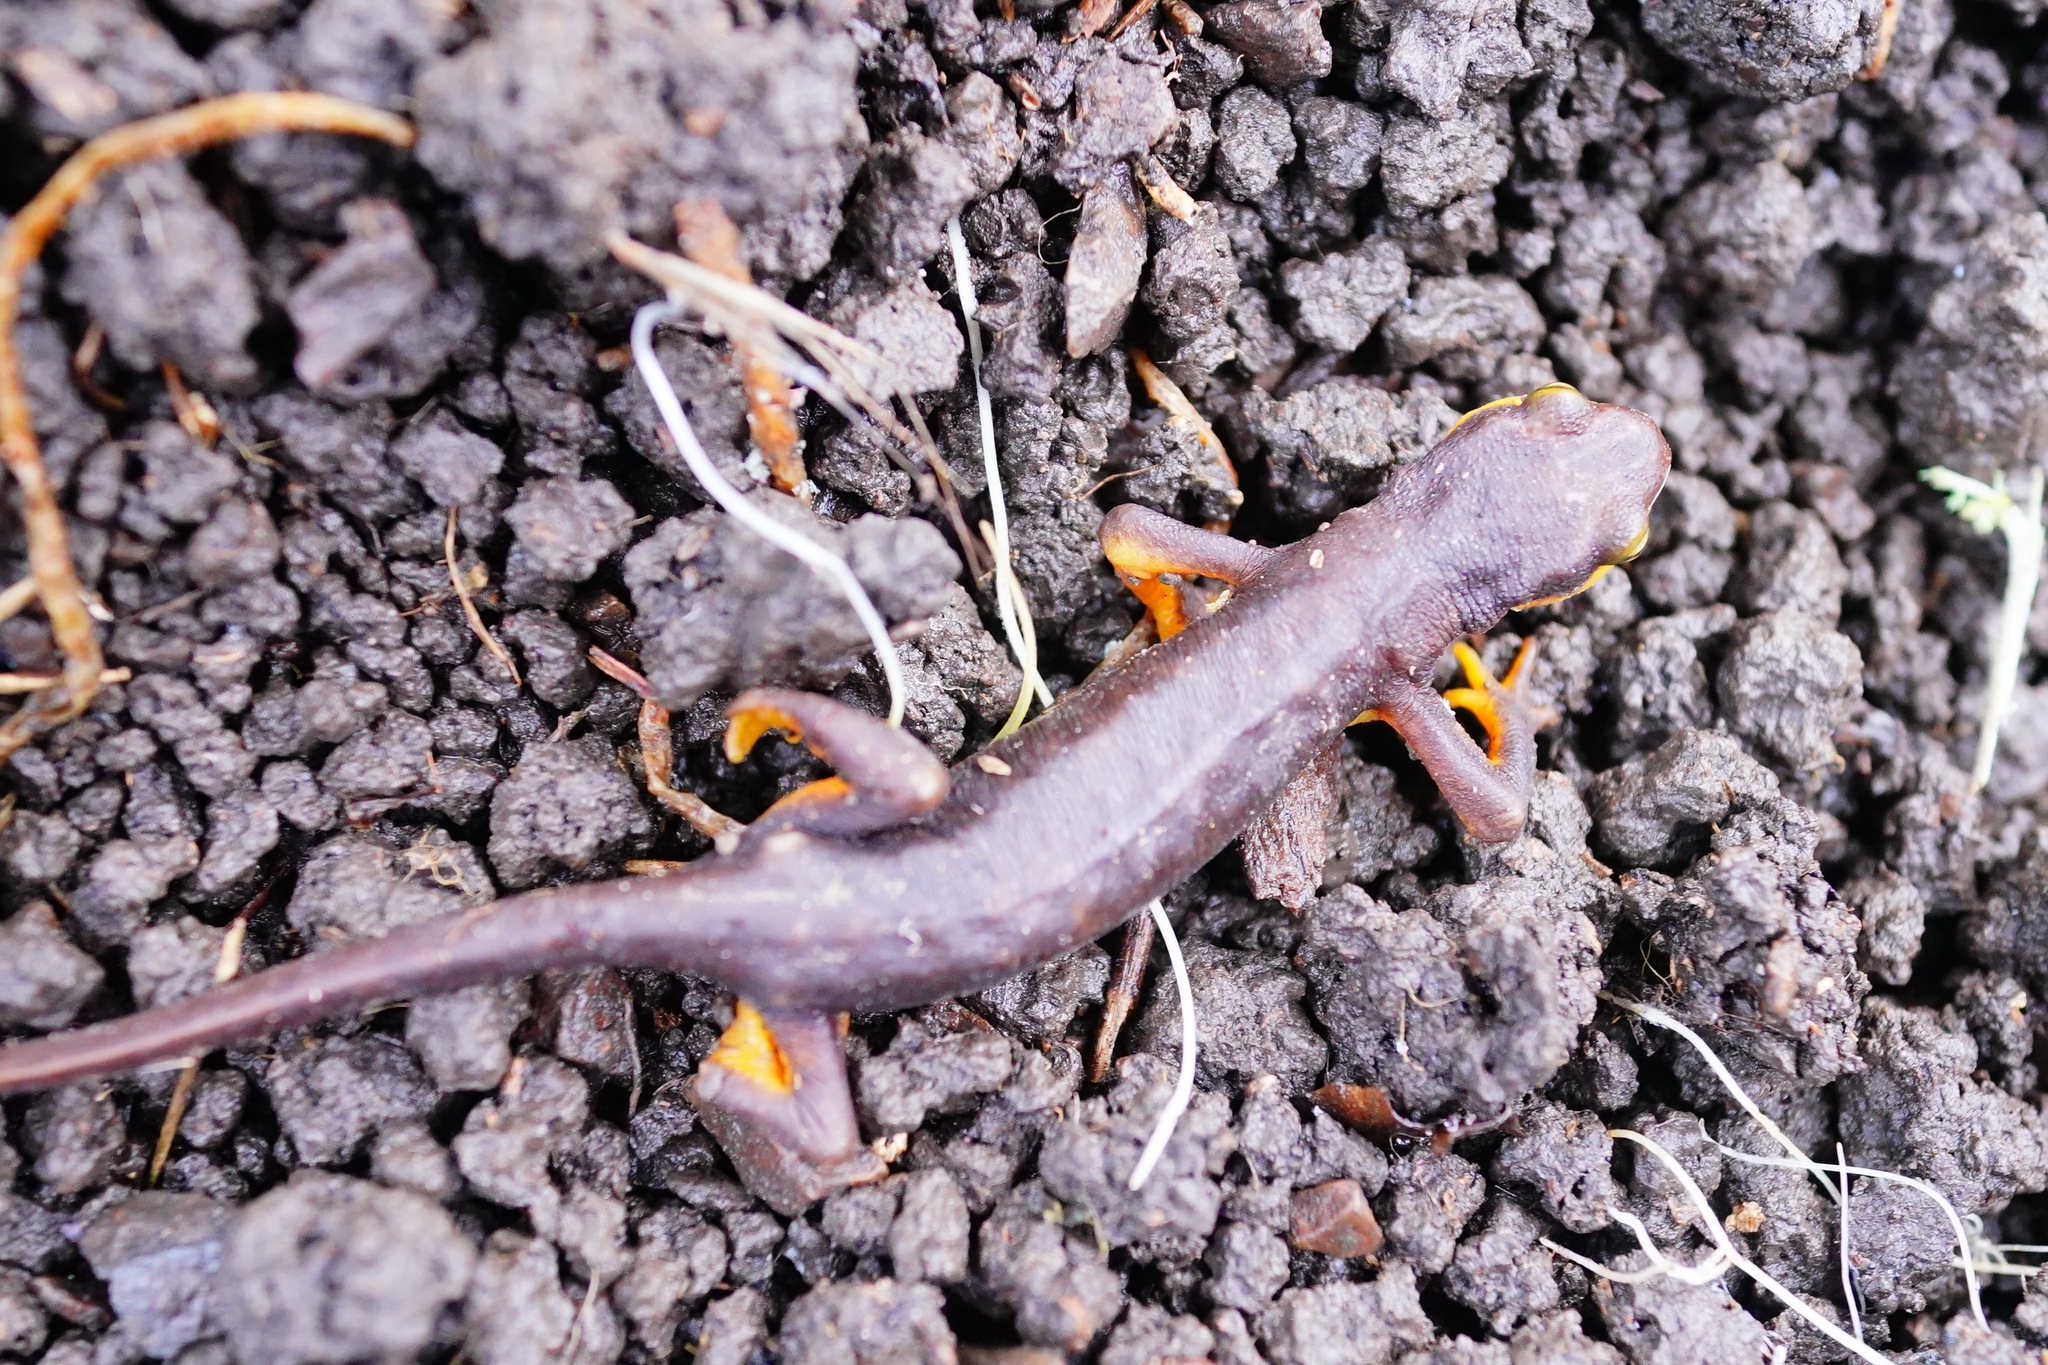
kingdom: Animalia
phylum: Chordata
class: Amphibia
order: Caudata
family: Salamandridae
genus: Taricha
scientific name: Taricha torosa
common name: California newt
